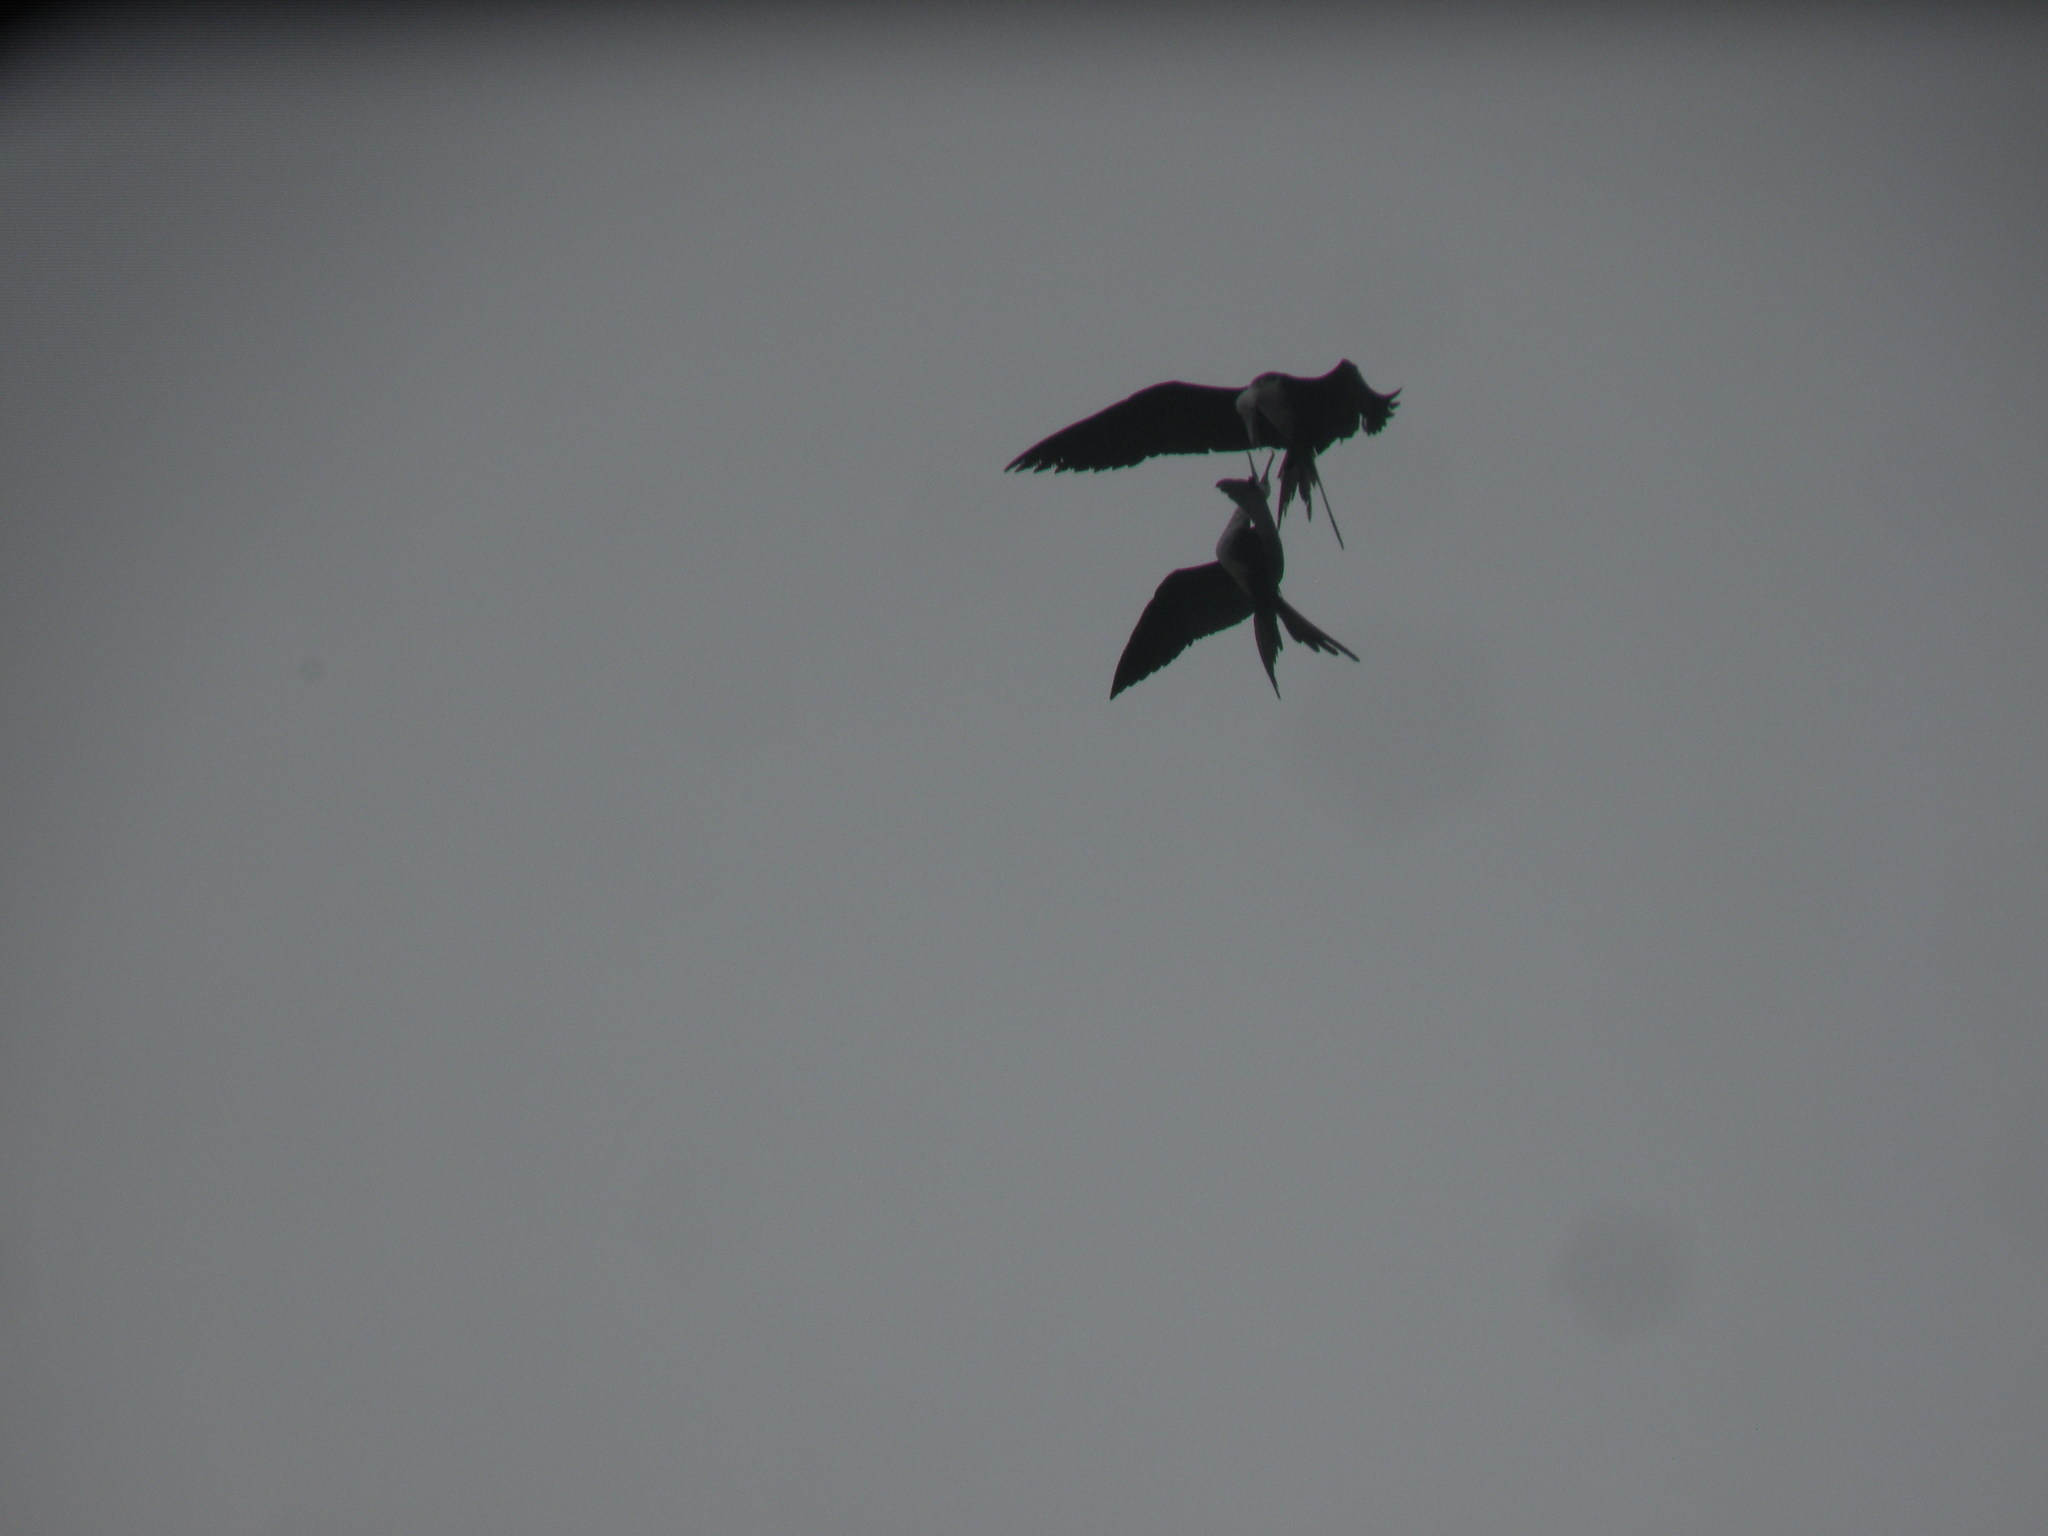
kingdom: Animalia
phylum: Chordata
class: Aves
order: Suliformes
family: Fregatidae
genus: Fregata
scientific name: Fregata magnificens
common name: Magnificent frigatebird
